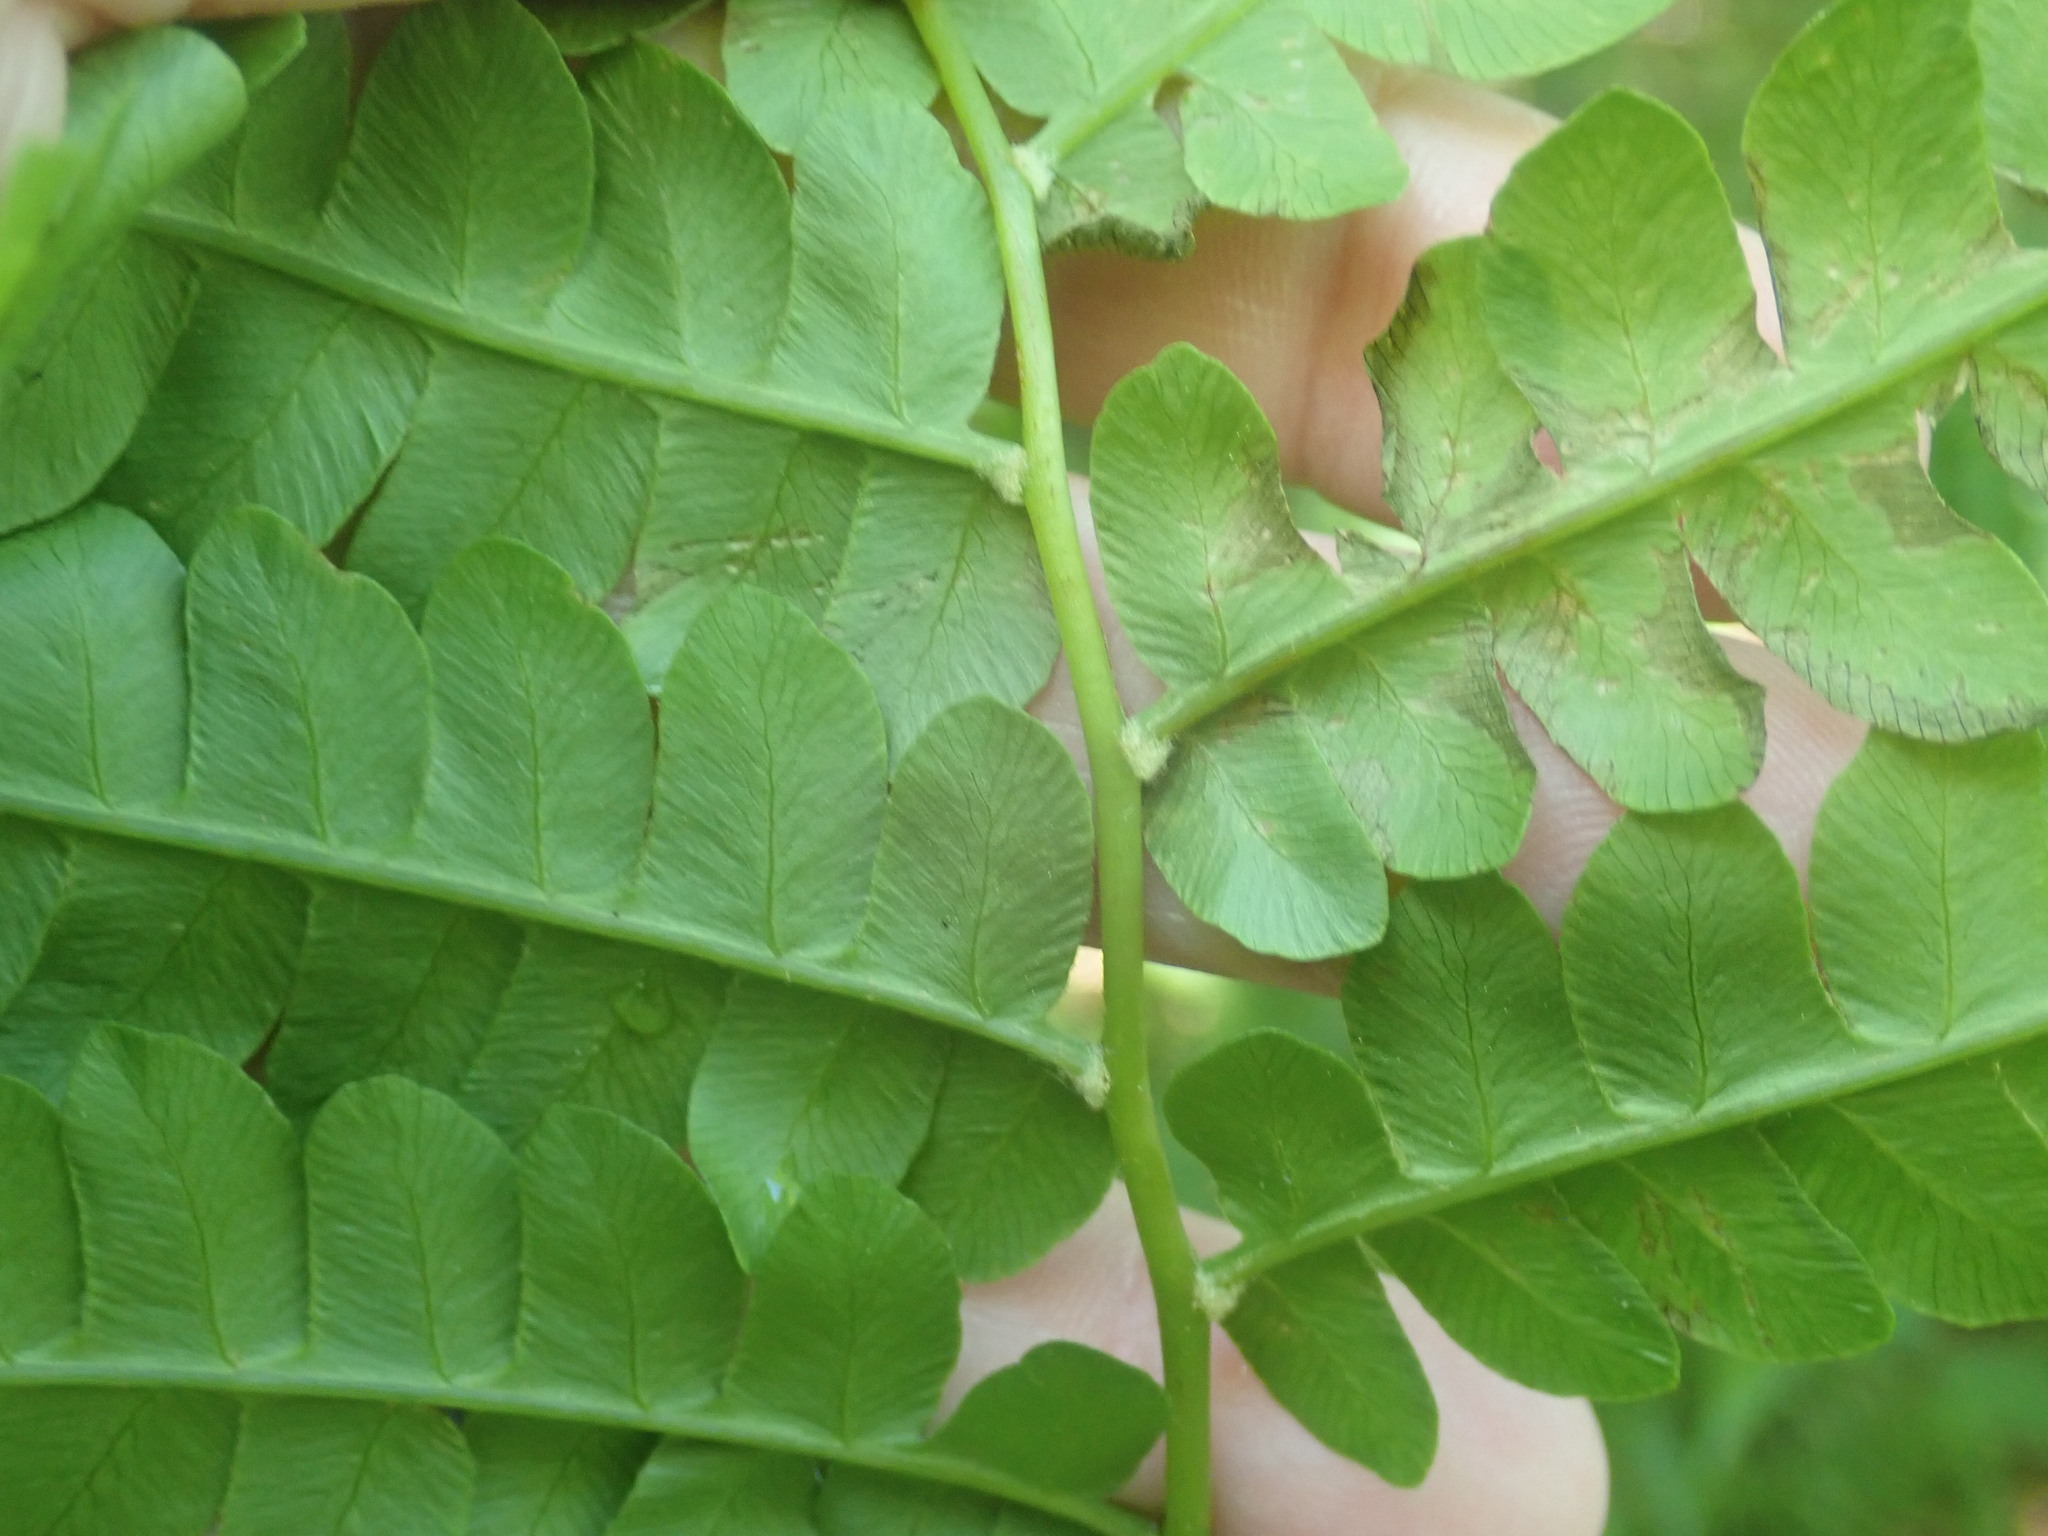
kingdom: Plantae
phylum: Tracheophyta
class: Polypodiopsida
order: Osmundales
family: Osmundaceae
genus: Osmundastrum
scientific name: Osmundastrum cinnamomeum
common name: Cinnamon fern
